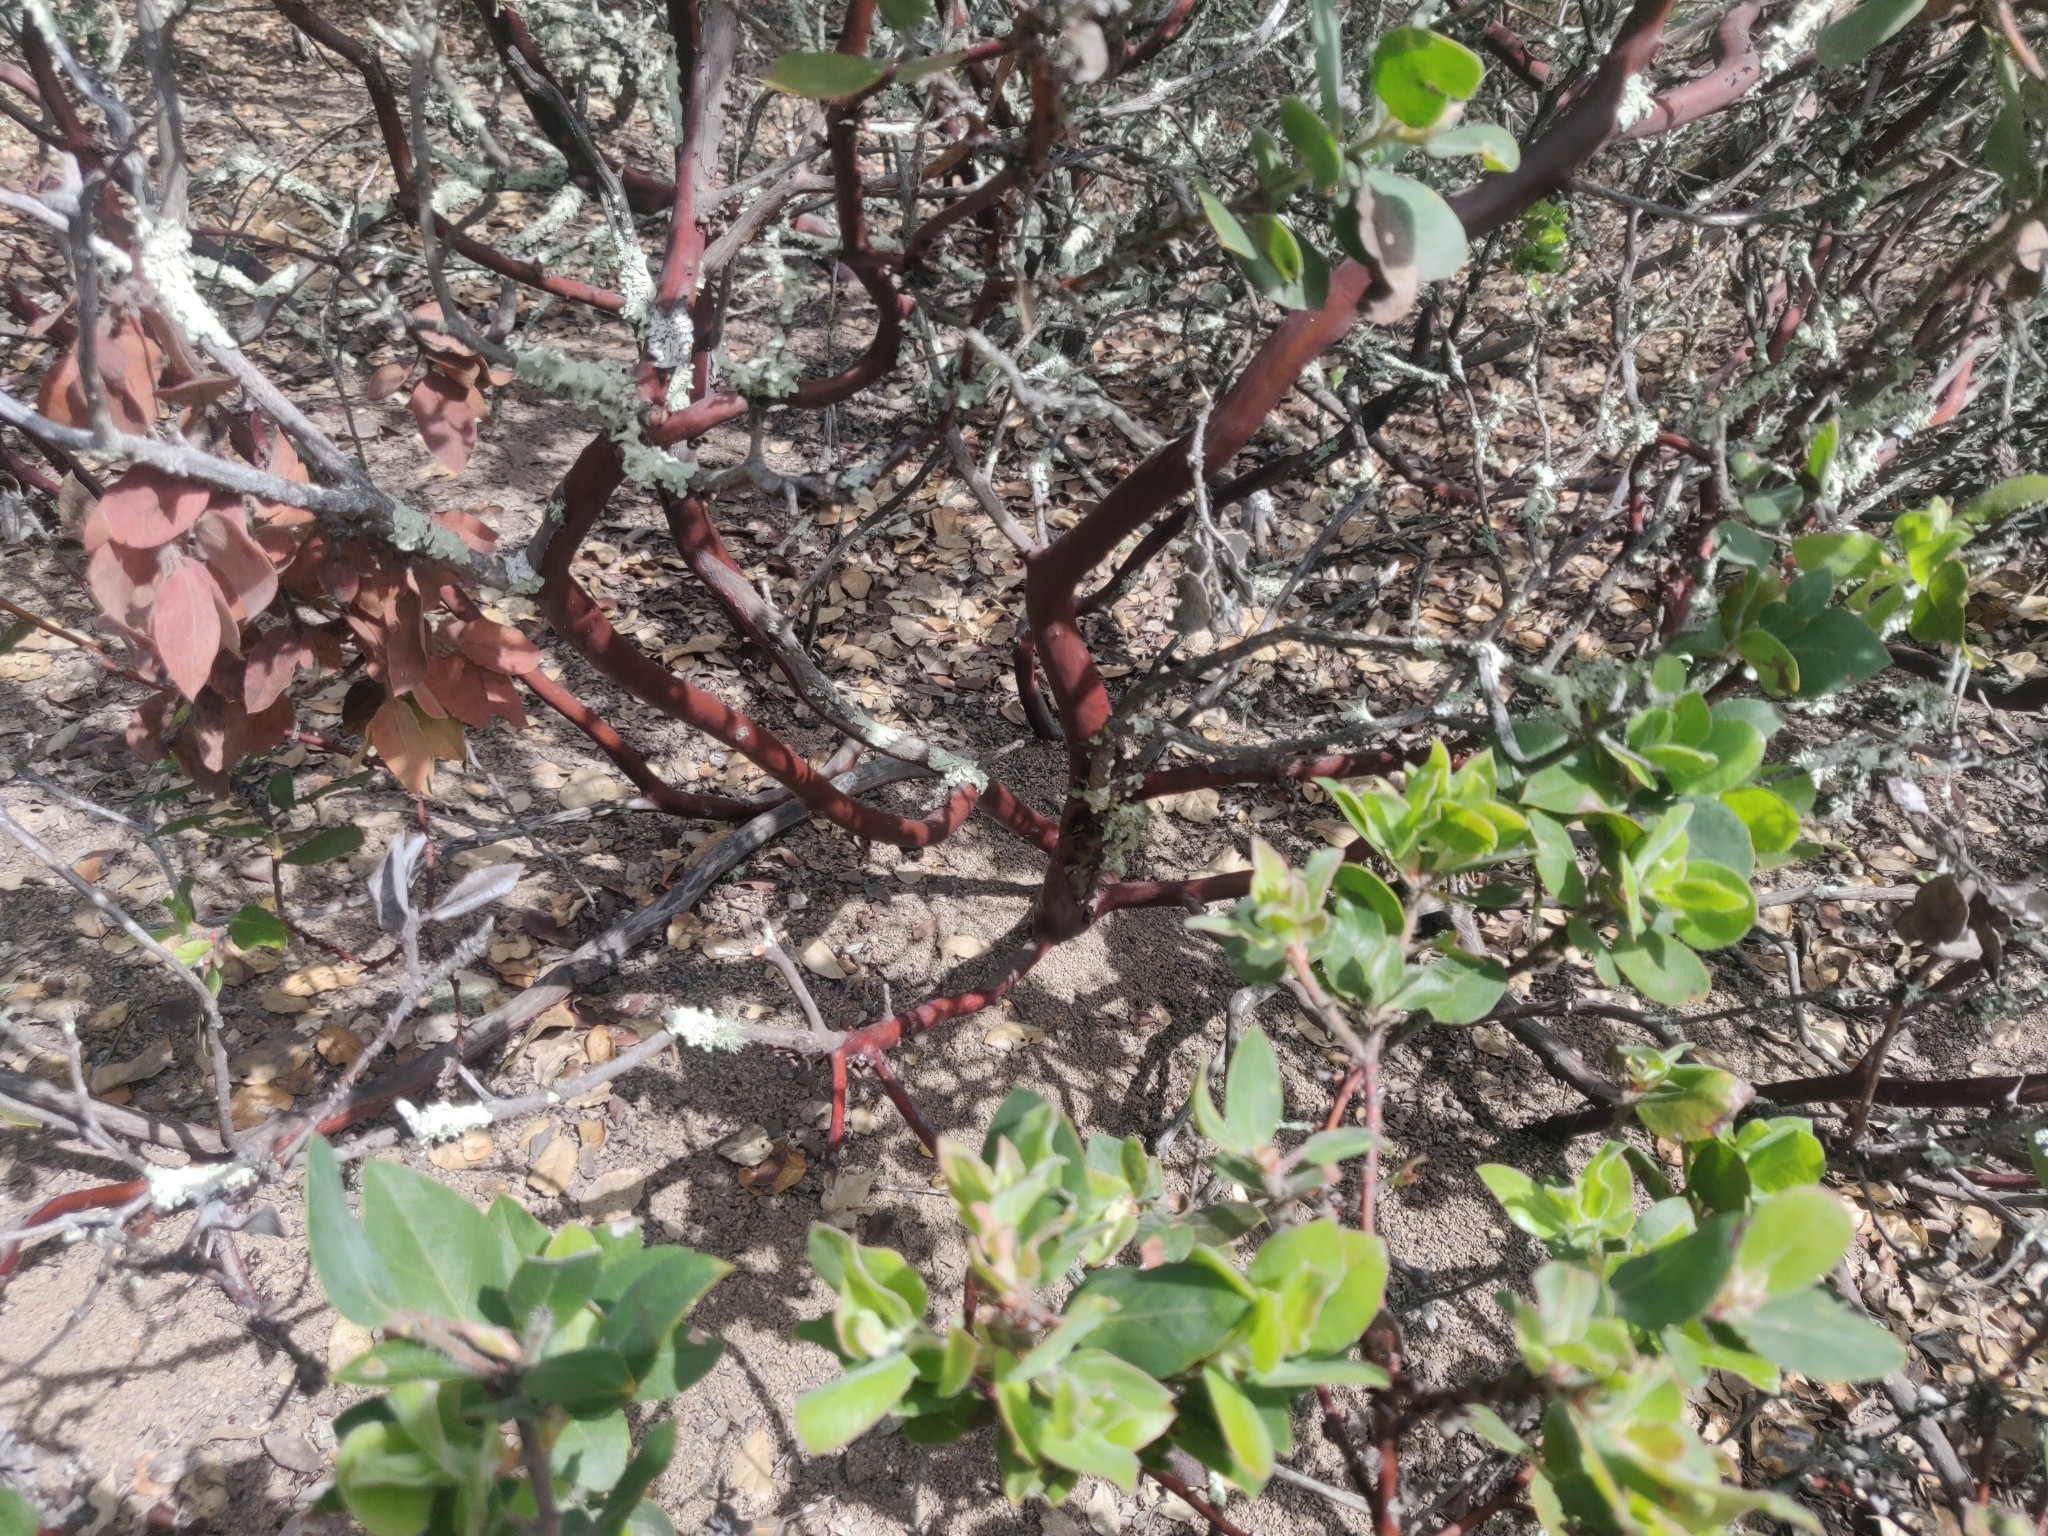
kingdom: Plantae
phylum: Tracheophyta
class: Magnoliopsida
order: Ericales
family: Ericaceae
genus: Arctostaphylos
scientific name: Arctostaphylos crustacea
